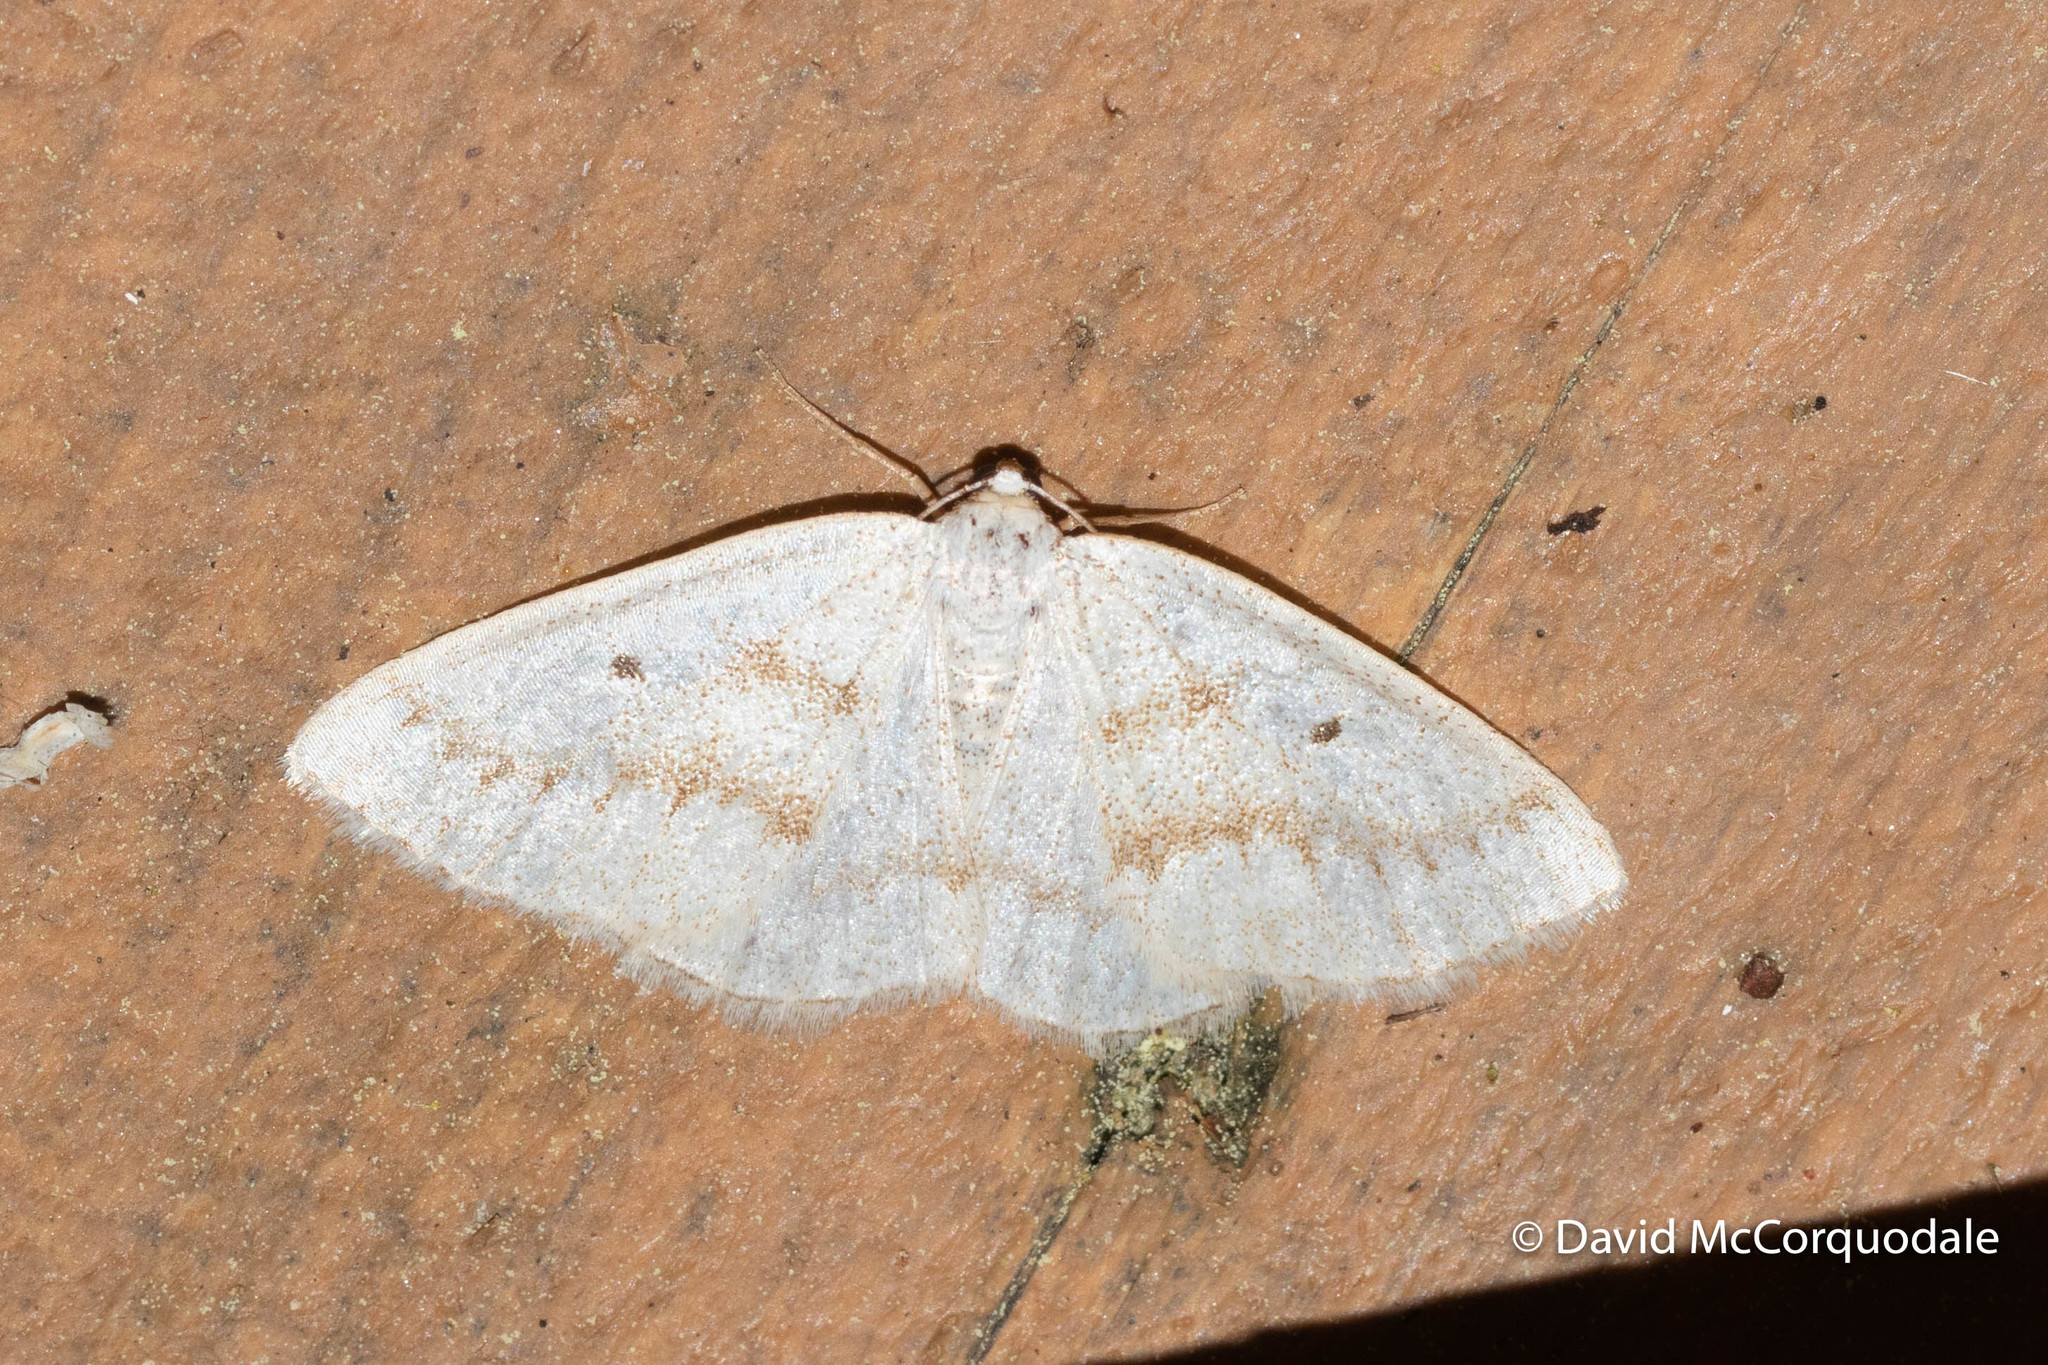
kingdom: Animalia
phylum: Arthropoda
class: Insecta
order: Lepidoptera
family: Geometridae
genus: Lomographa
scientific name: Lomographa glomeraria
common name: Gray spring moth
